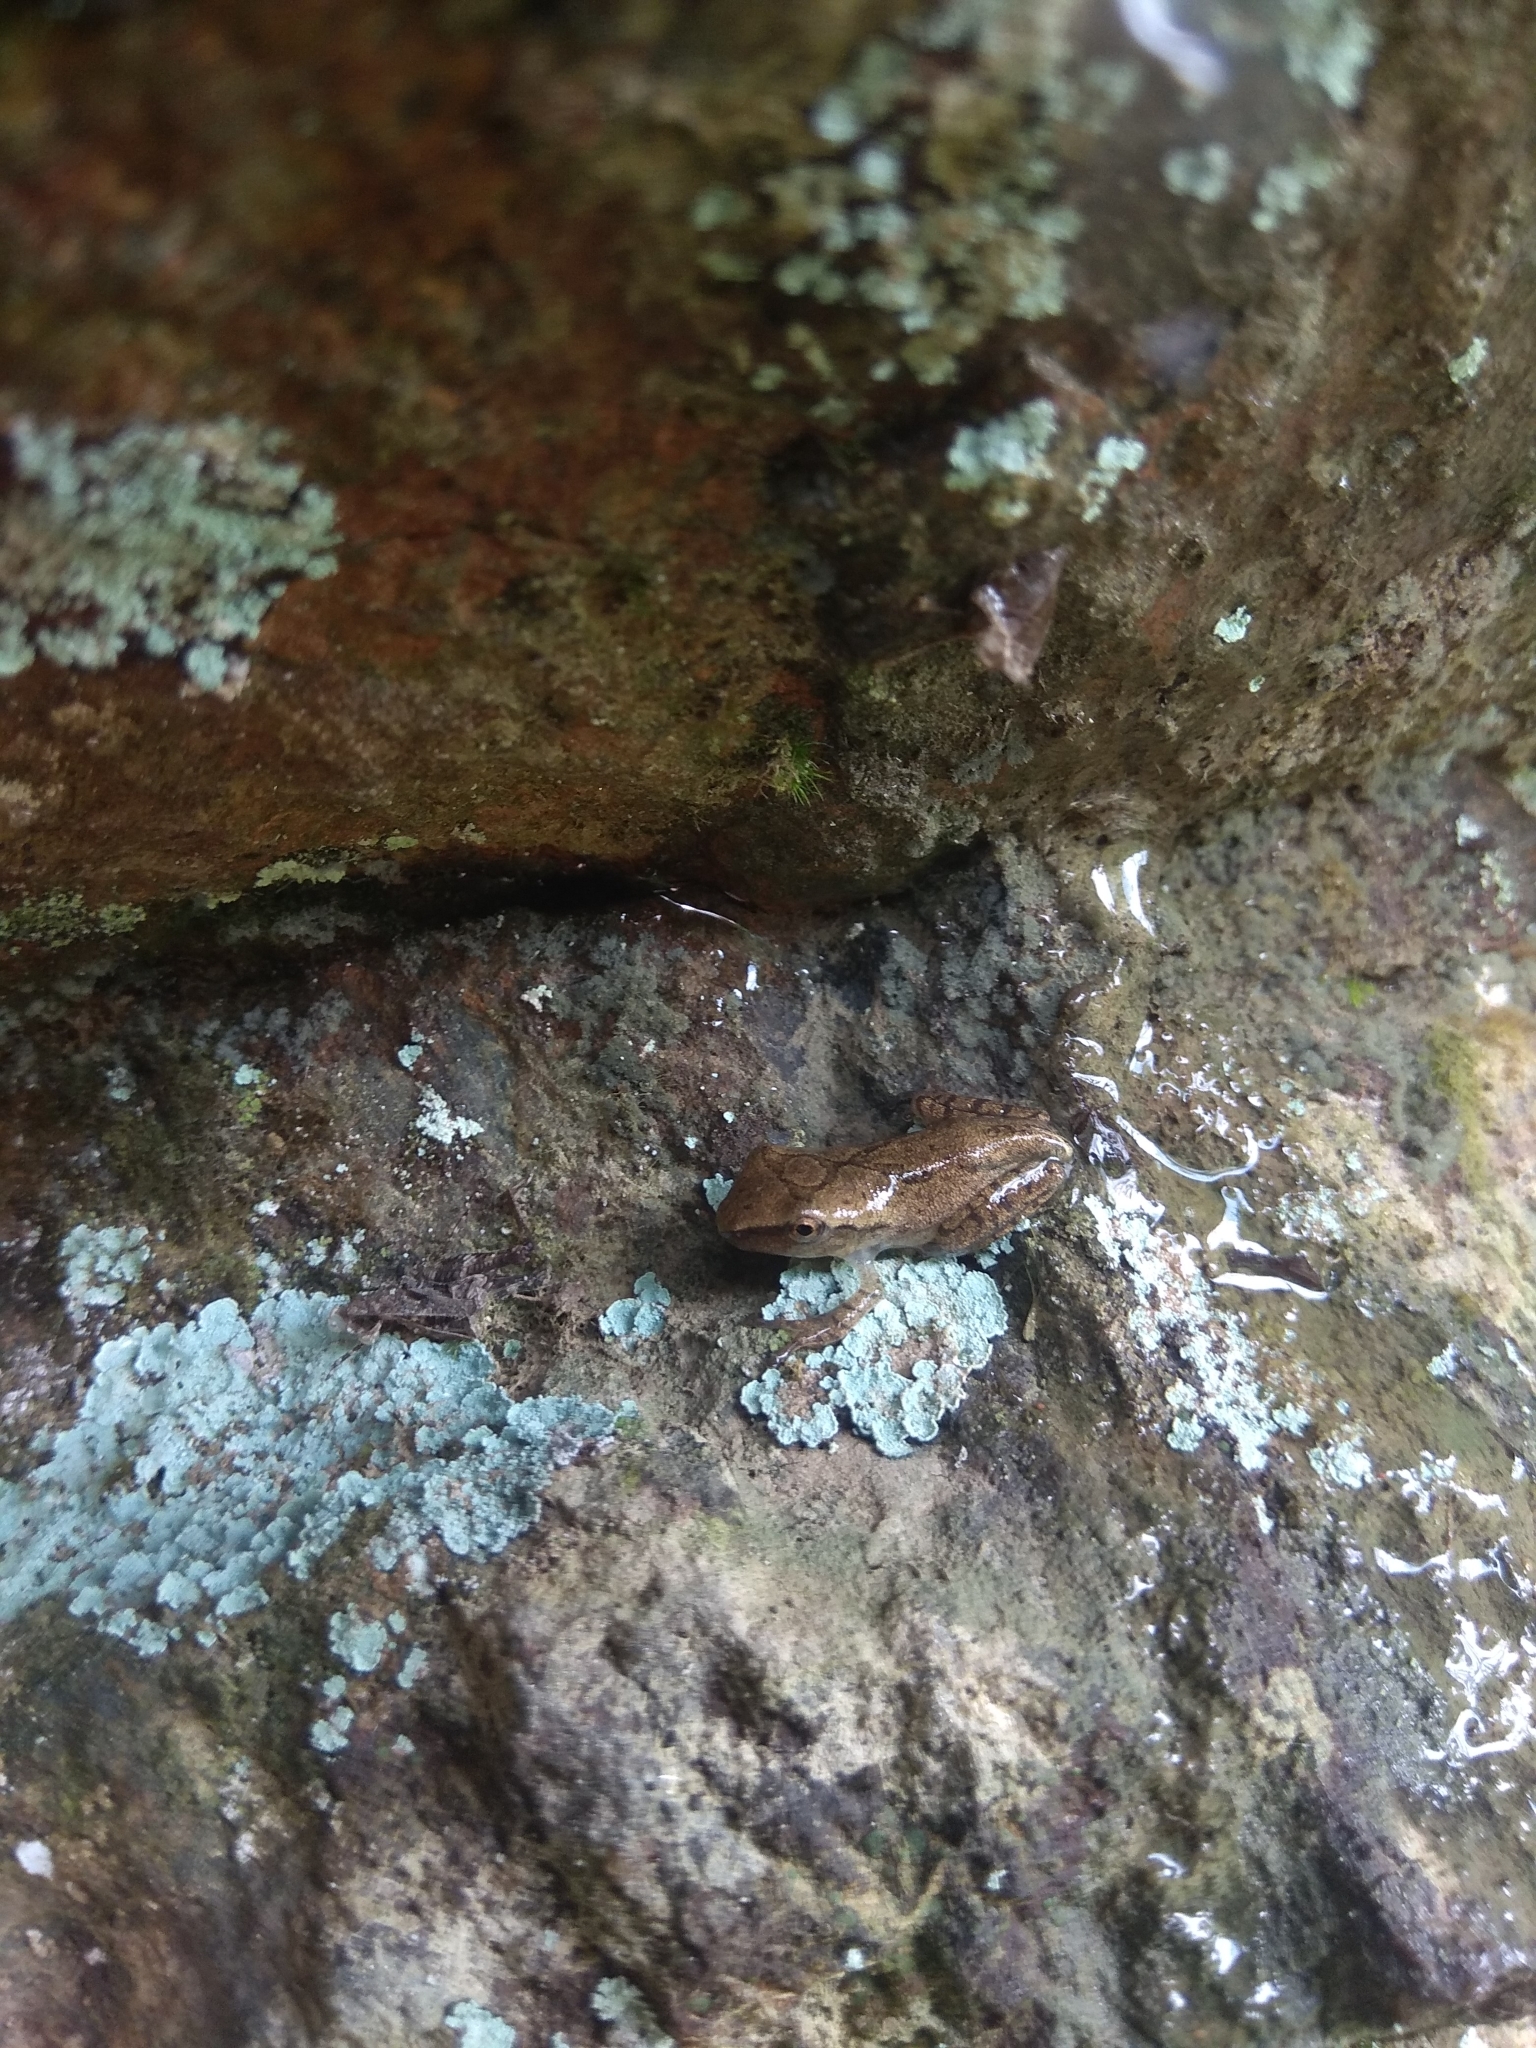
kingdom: Animalia
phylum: Chordata
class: Amphibia
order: Anura
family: Rhacophoridae
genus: Polypedates
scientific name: Polypedates megacephalus
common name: Hong kong whipping frog
